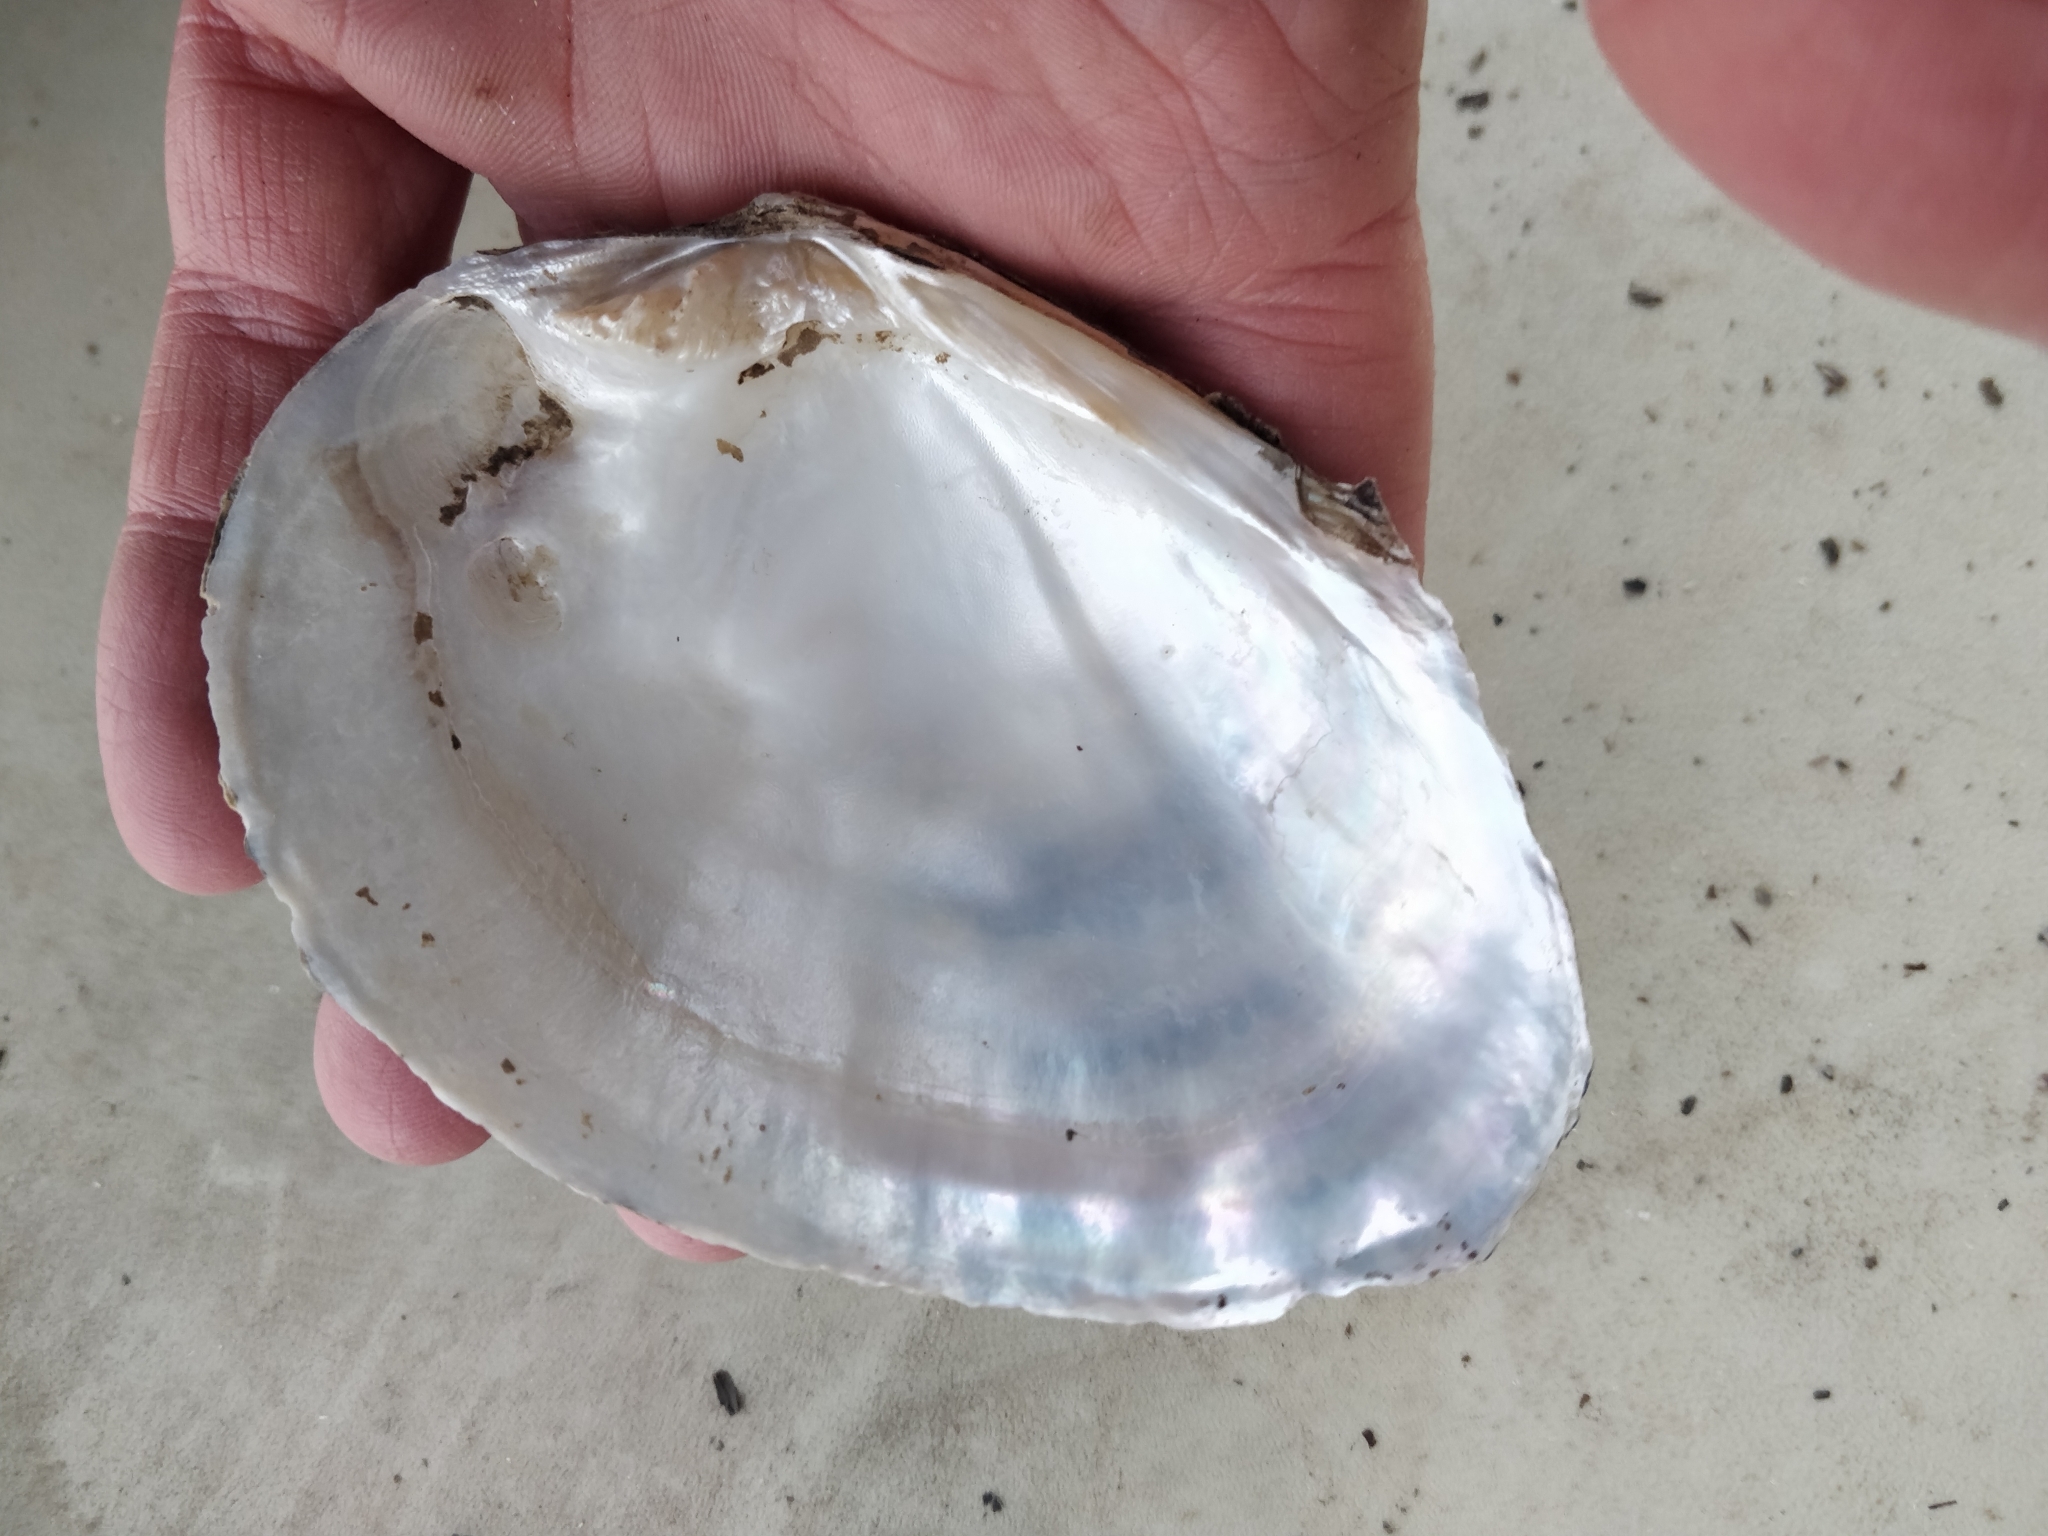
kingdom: Animalia
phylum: Mollusca
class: Bivalvia
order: Unionida
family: Unionidae
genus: Lasmigona
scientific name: Lasmigona complanata
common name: White heelsplitter
